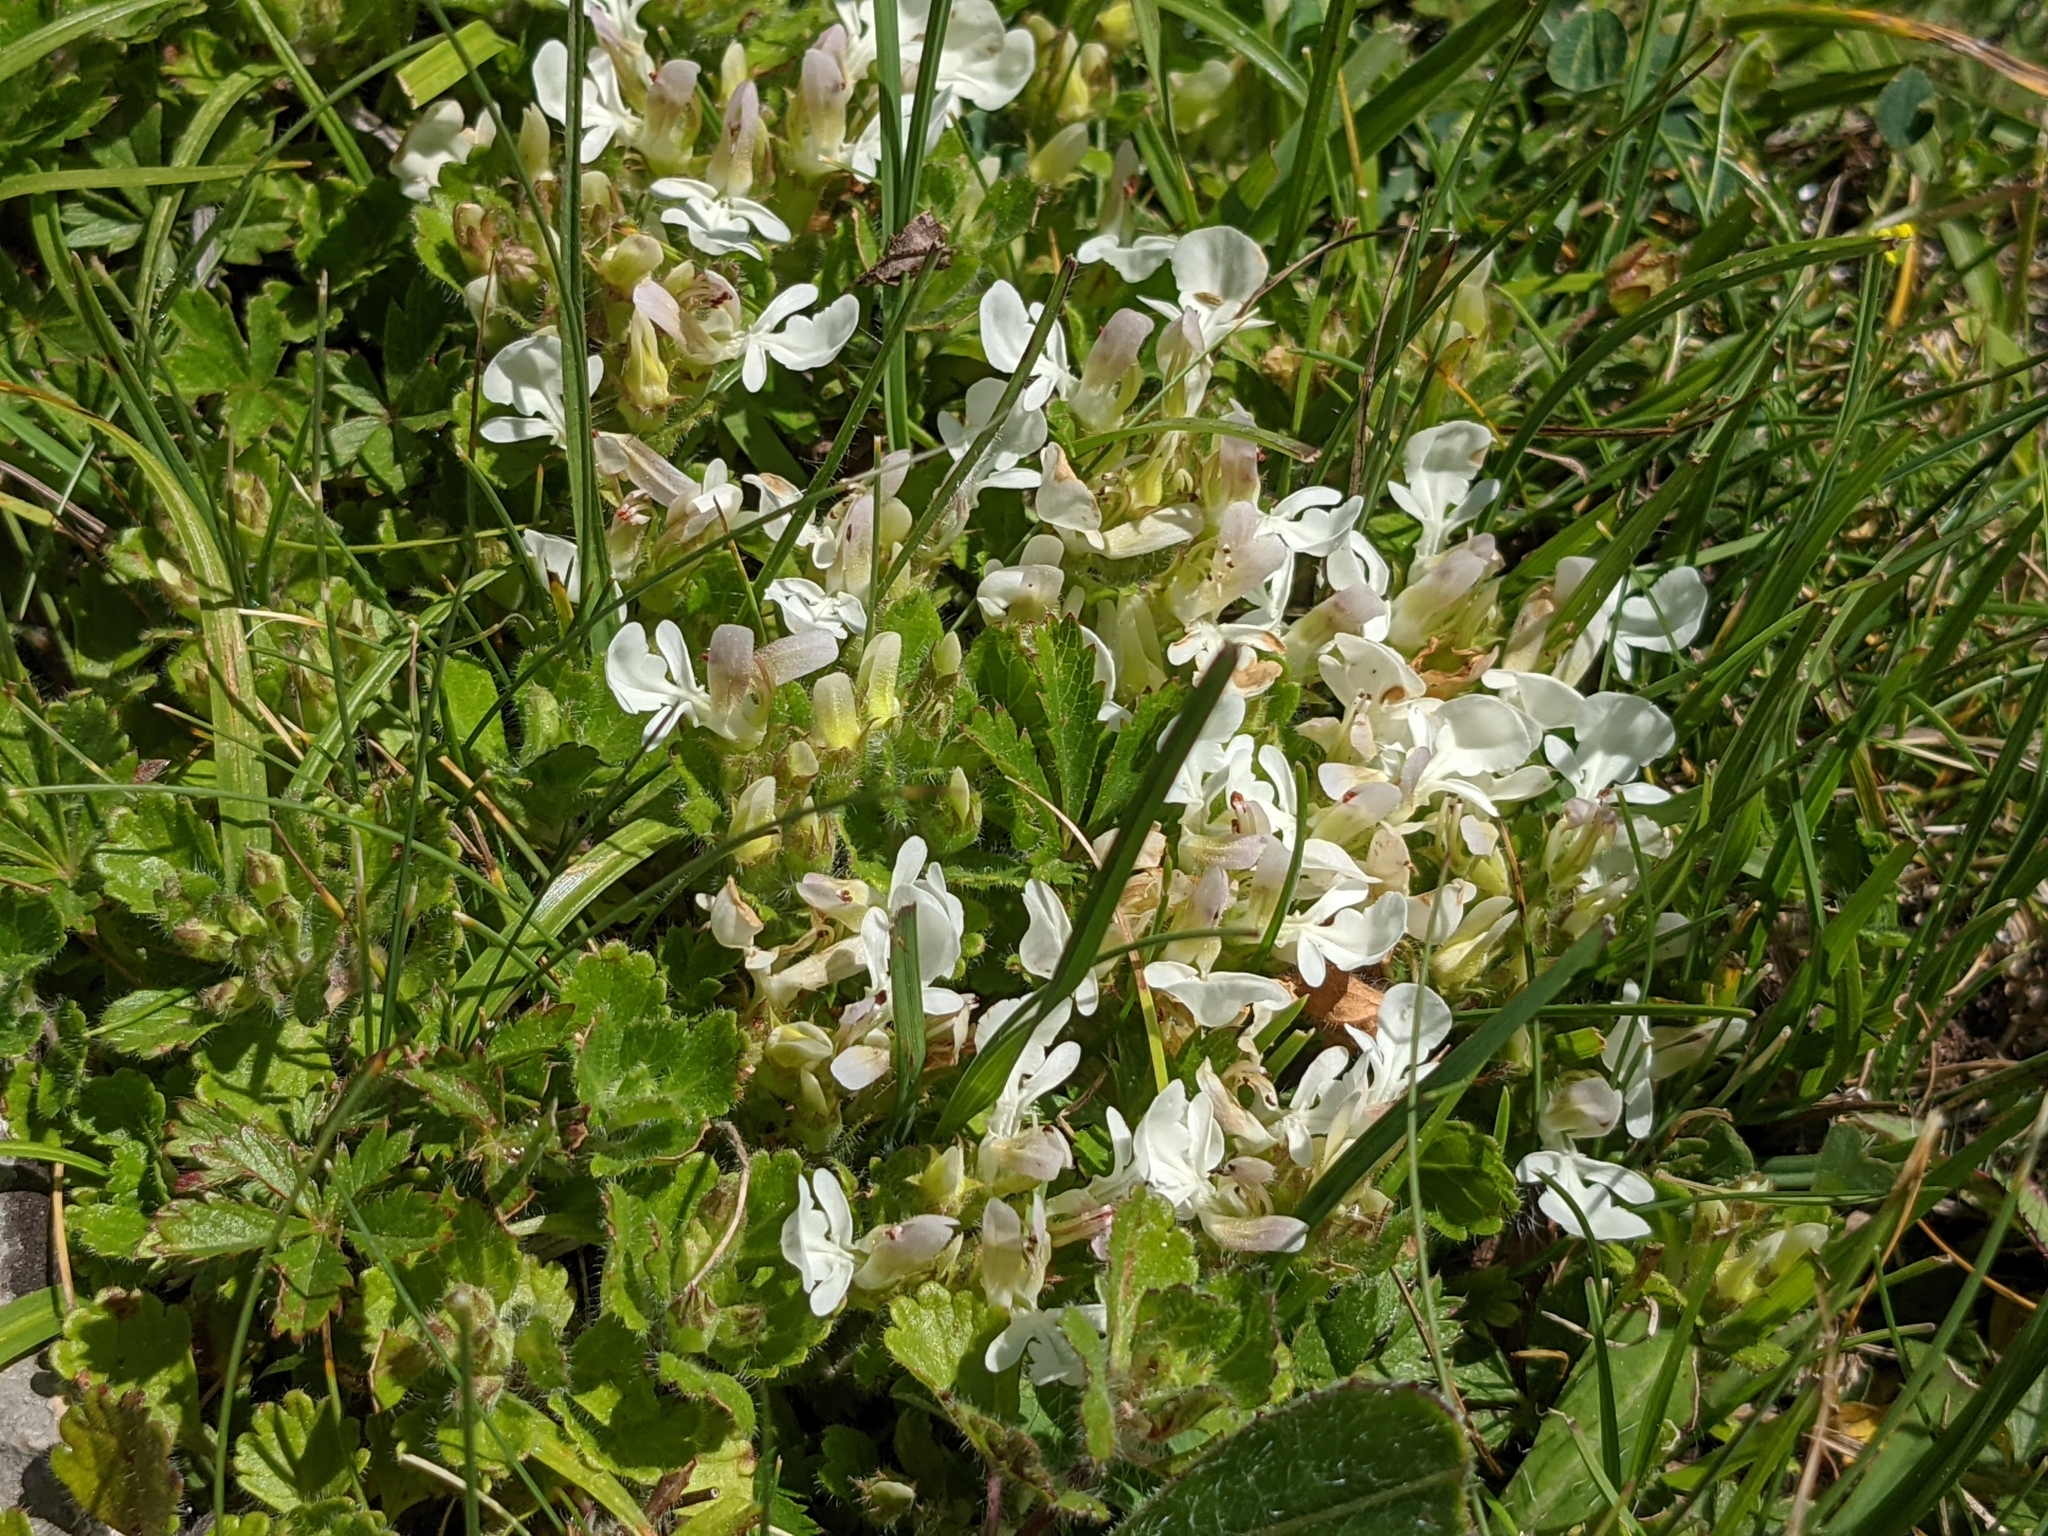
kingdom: Plantae
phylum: Tracheophyta
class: Magnoliopsida
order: Lamiales
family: Lamiaceae
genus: Teucrium
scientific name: Teucrium pyrenaicum
